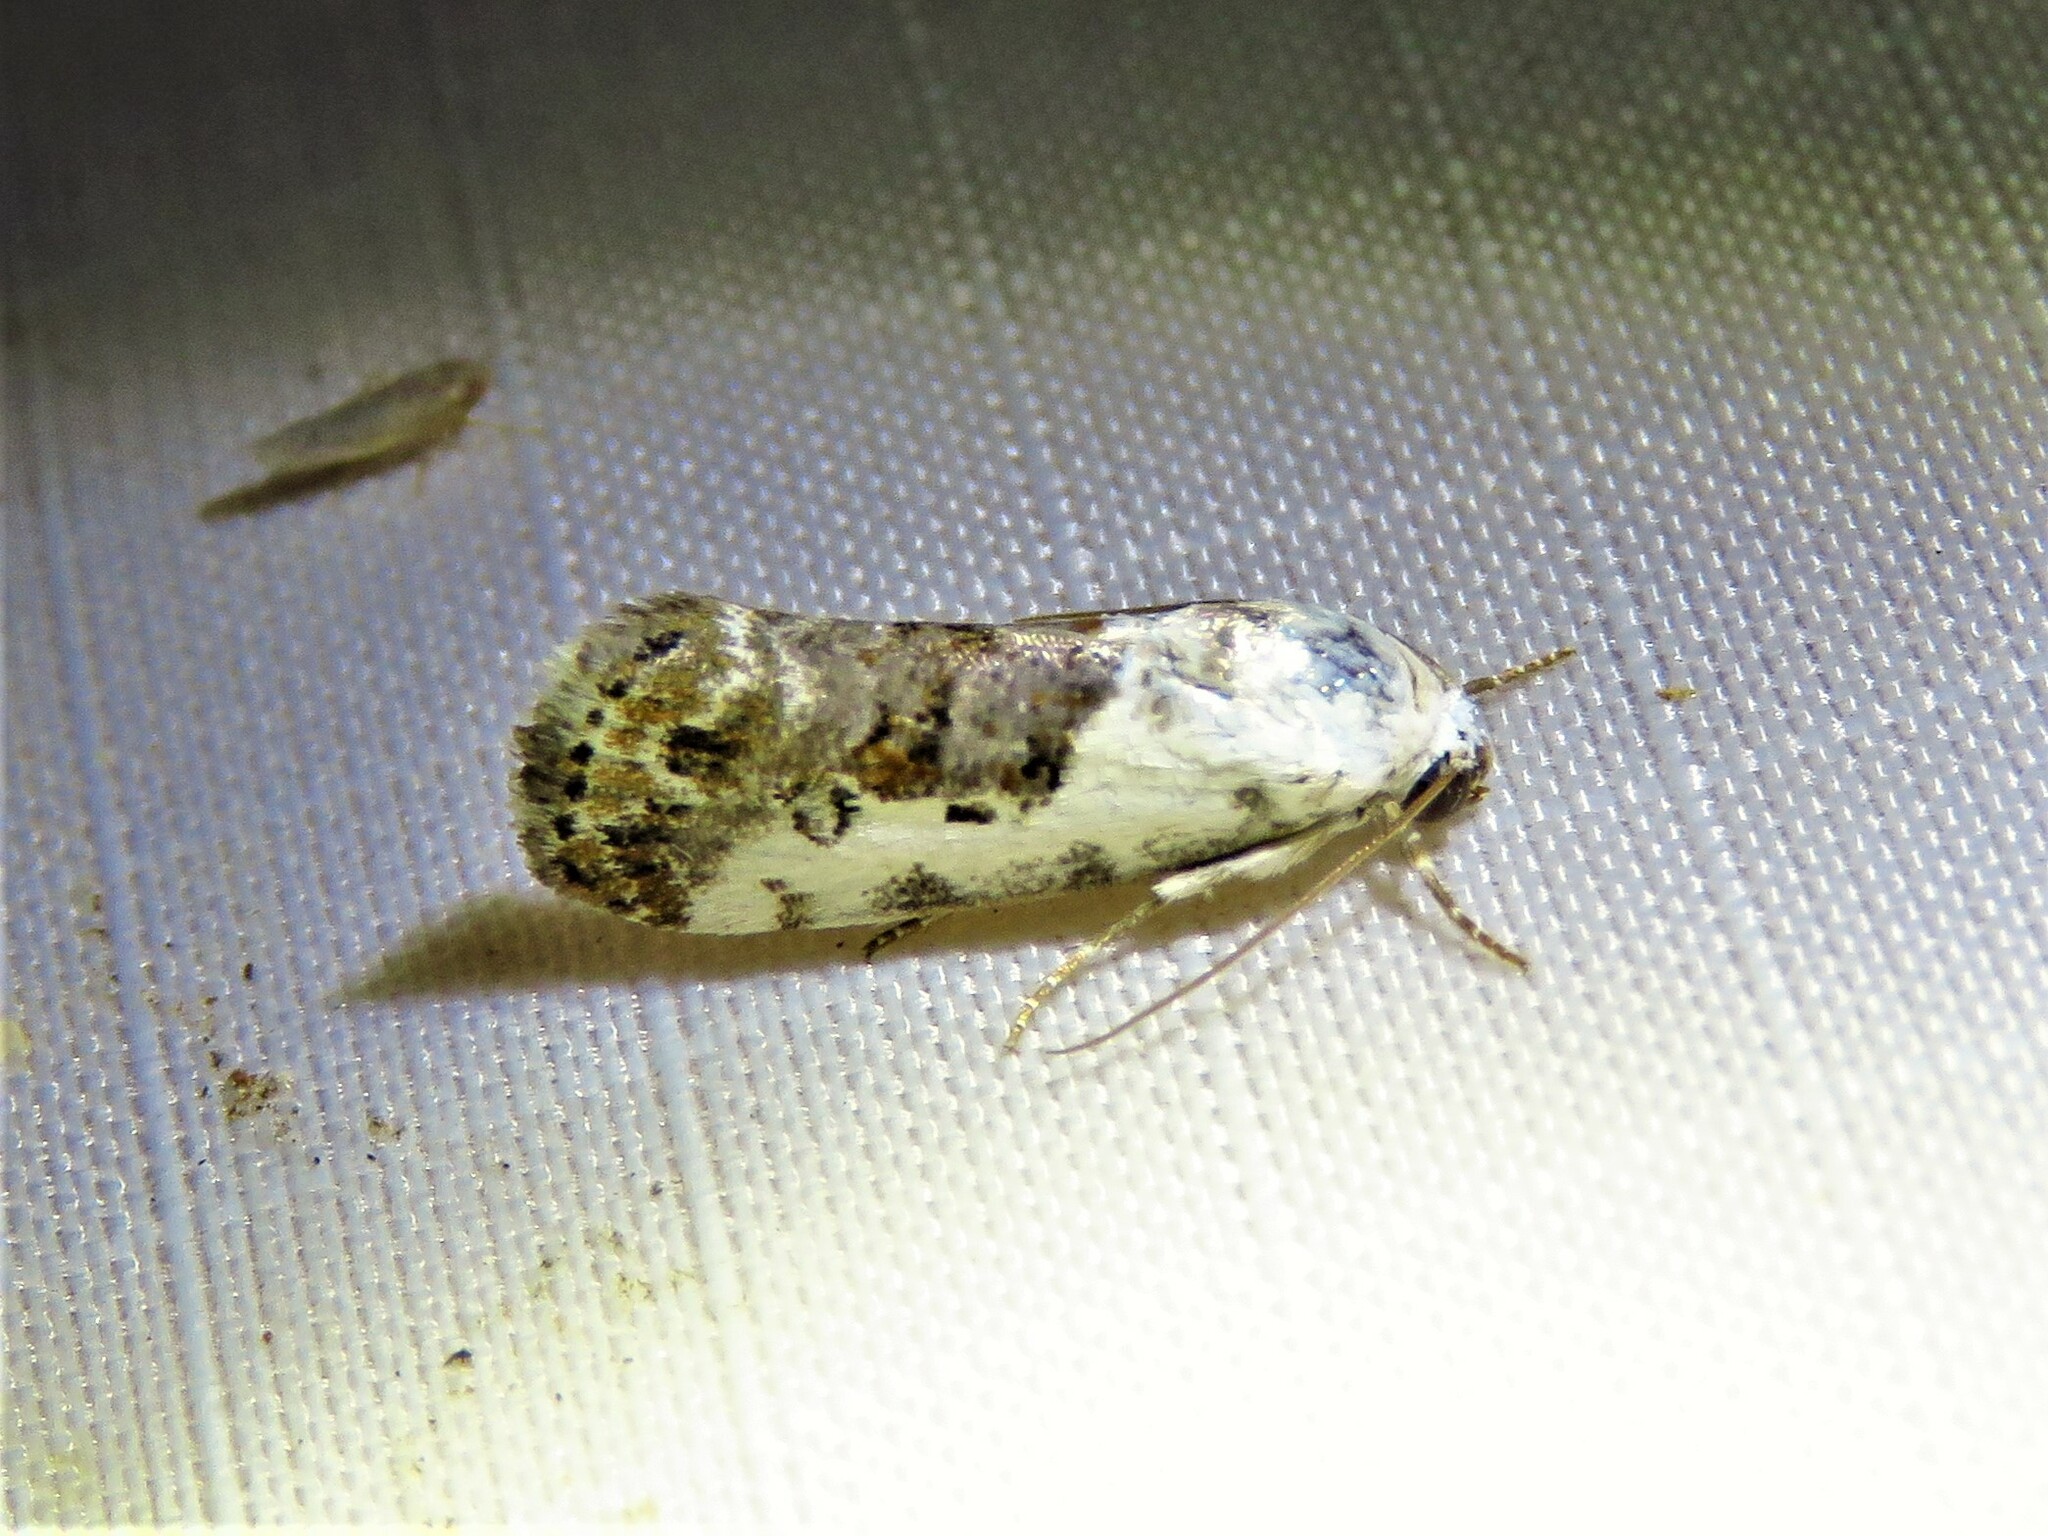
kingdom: Animalia
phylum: Arthropoda
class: Insecta
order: Lepidoptera
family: Noctuidae
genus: Acontia
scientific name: Acontia phecolisca
